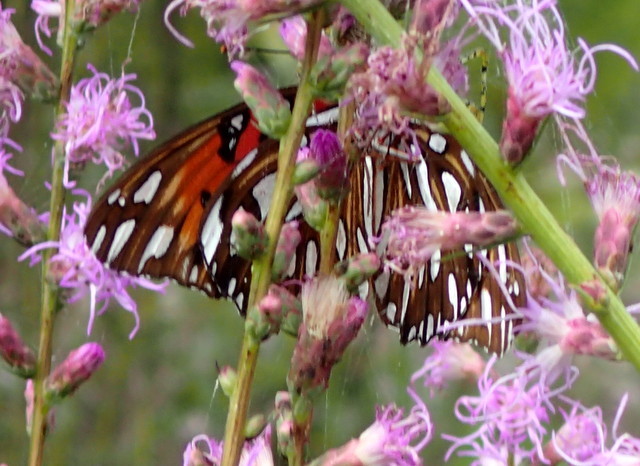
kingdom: Animalia
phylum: Arthropoda
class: Insecta
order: Lepidoptera
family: Nymphalidae
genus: Dione
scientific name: Dione vanillae
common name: Gulf fritillary
